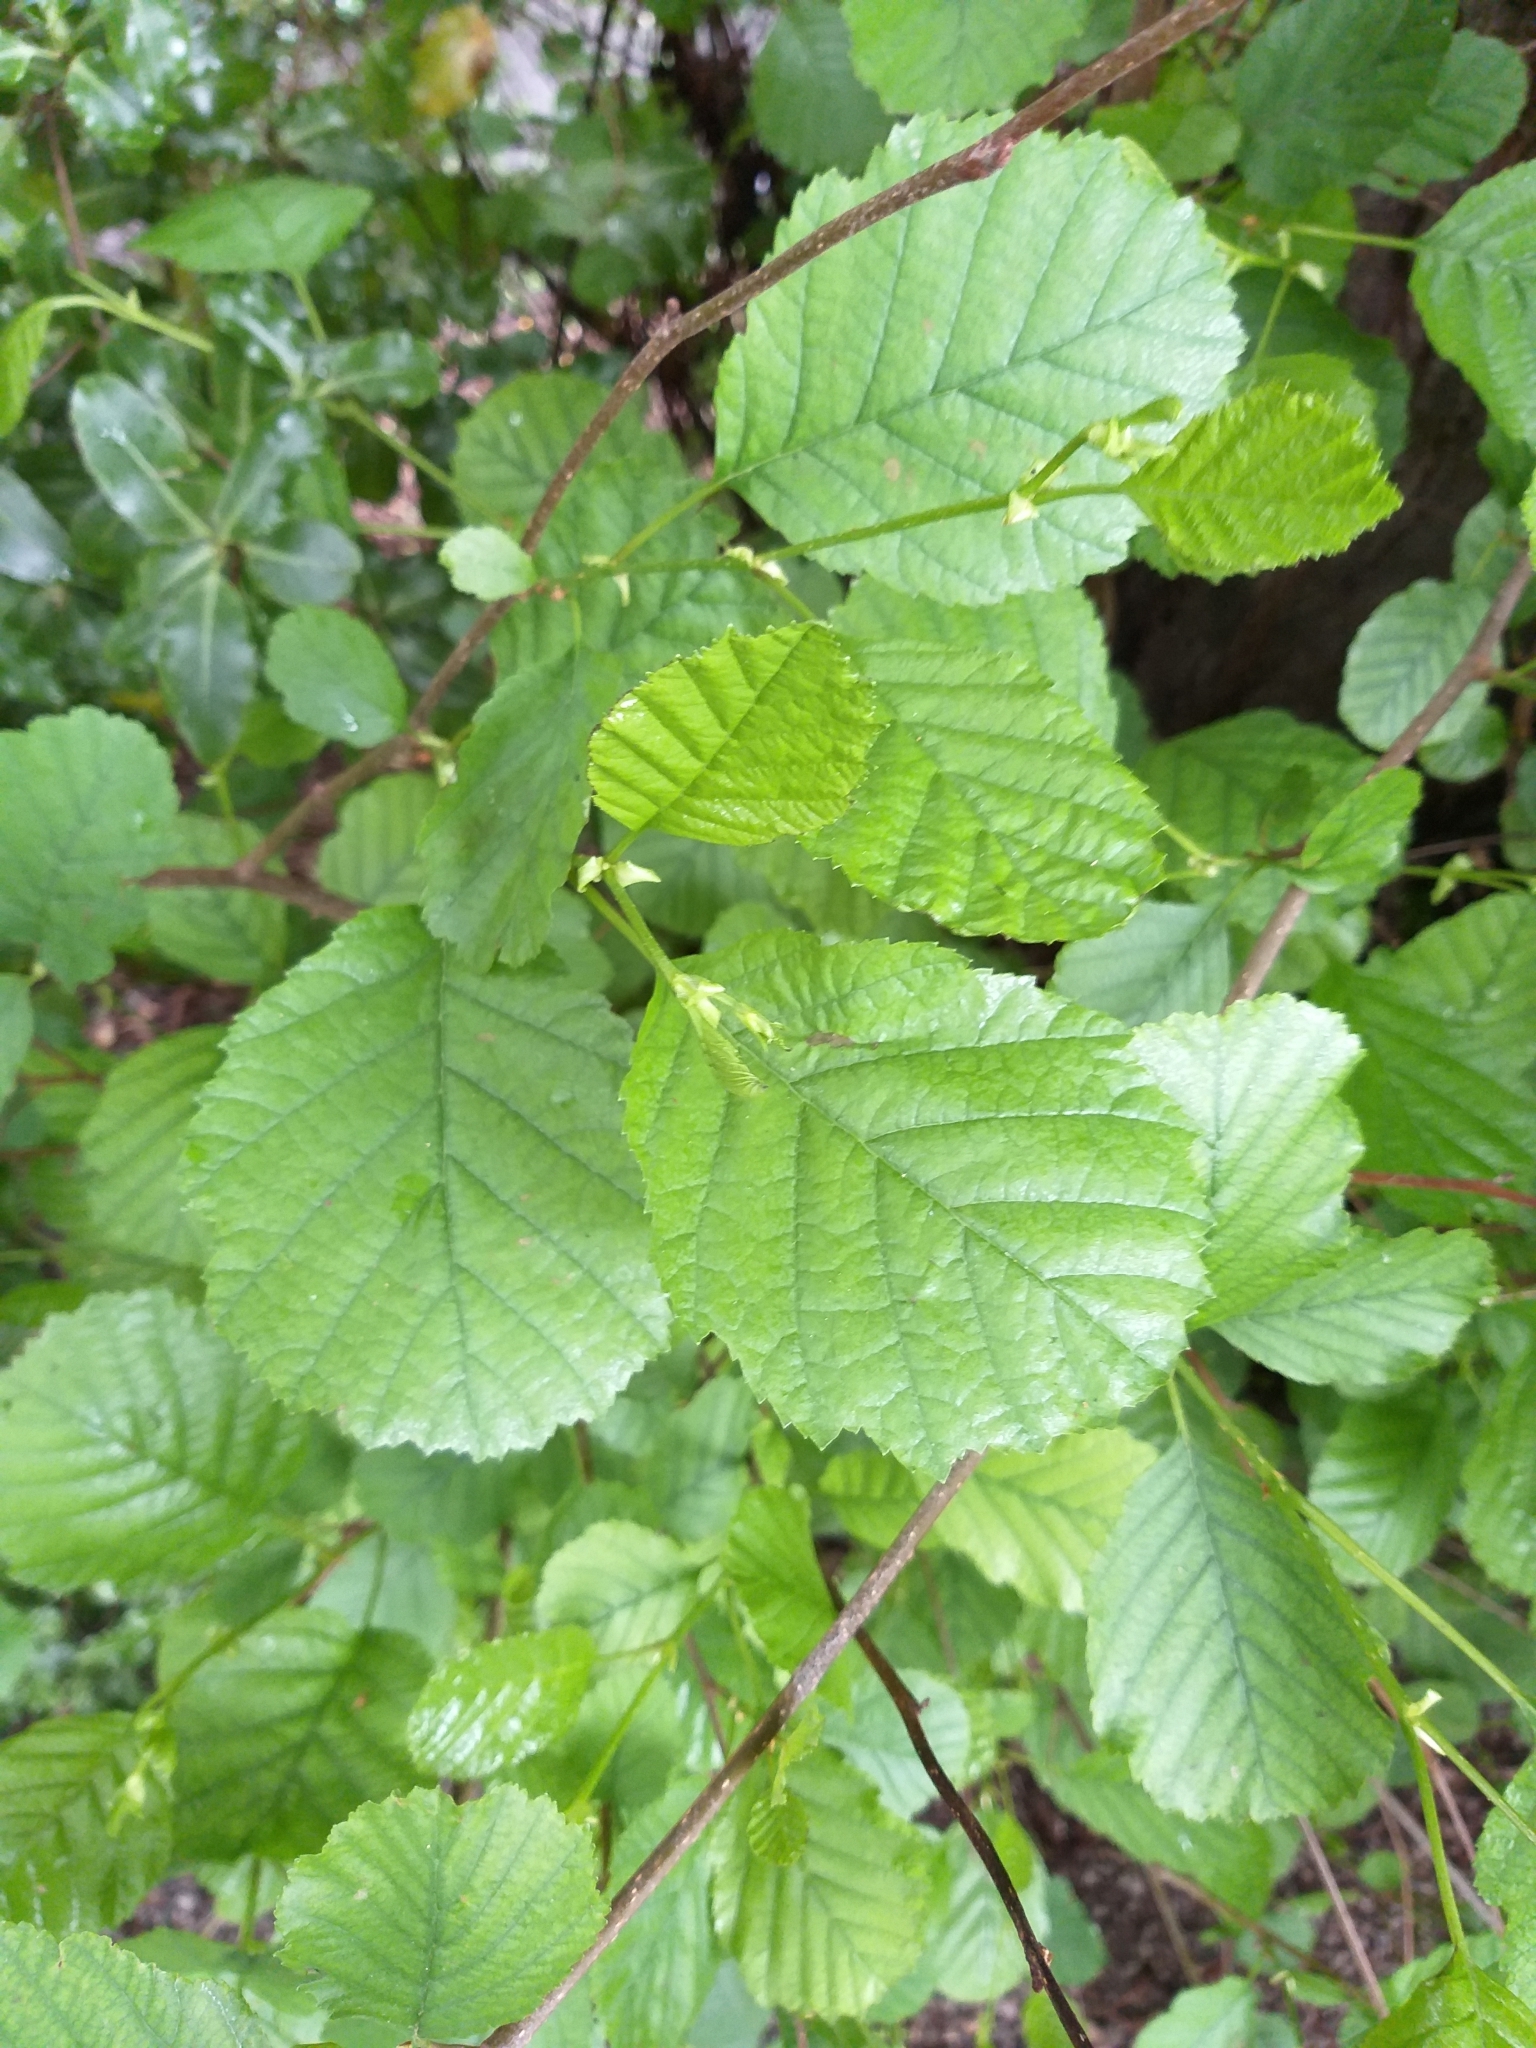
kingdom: Plantae
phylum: Tracheophyta
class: Magnoliopsida
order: Fagales
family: Betulaceae
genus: Alnus
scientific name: Alnus glutinosa
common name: Black alder
